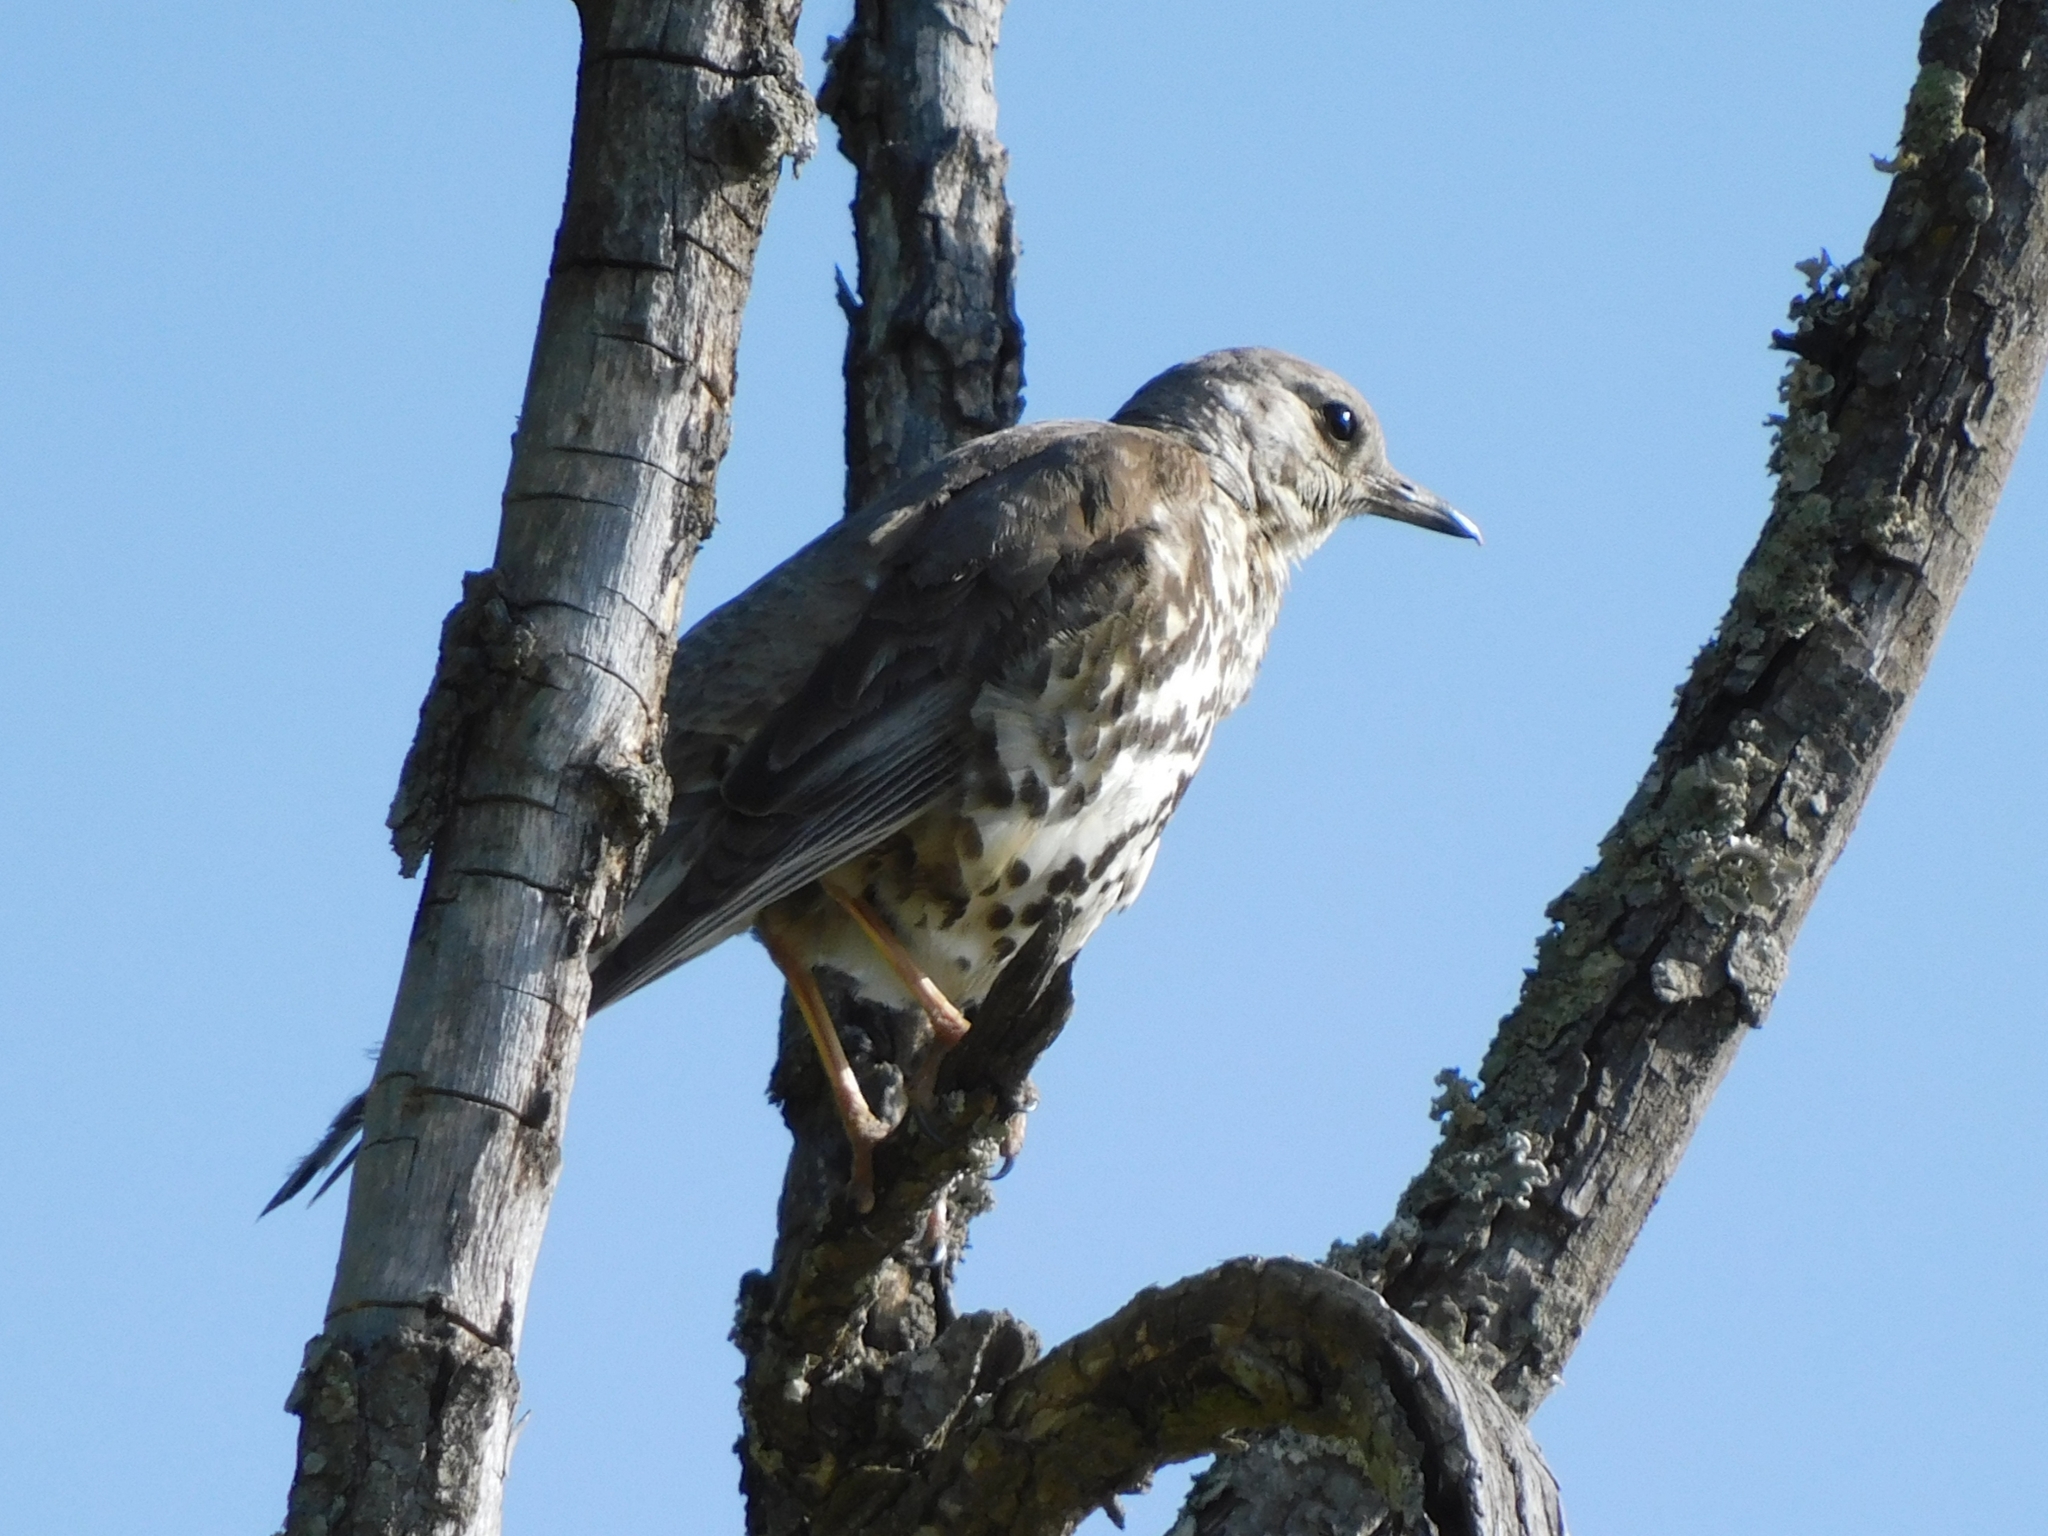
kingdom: Animalia
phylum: Chordata
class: Aves
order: Passeriformes
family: Turdidae
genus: Turdus
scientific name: Turdus viscivorus
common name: Mistle thrush
